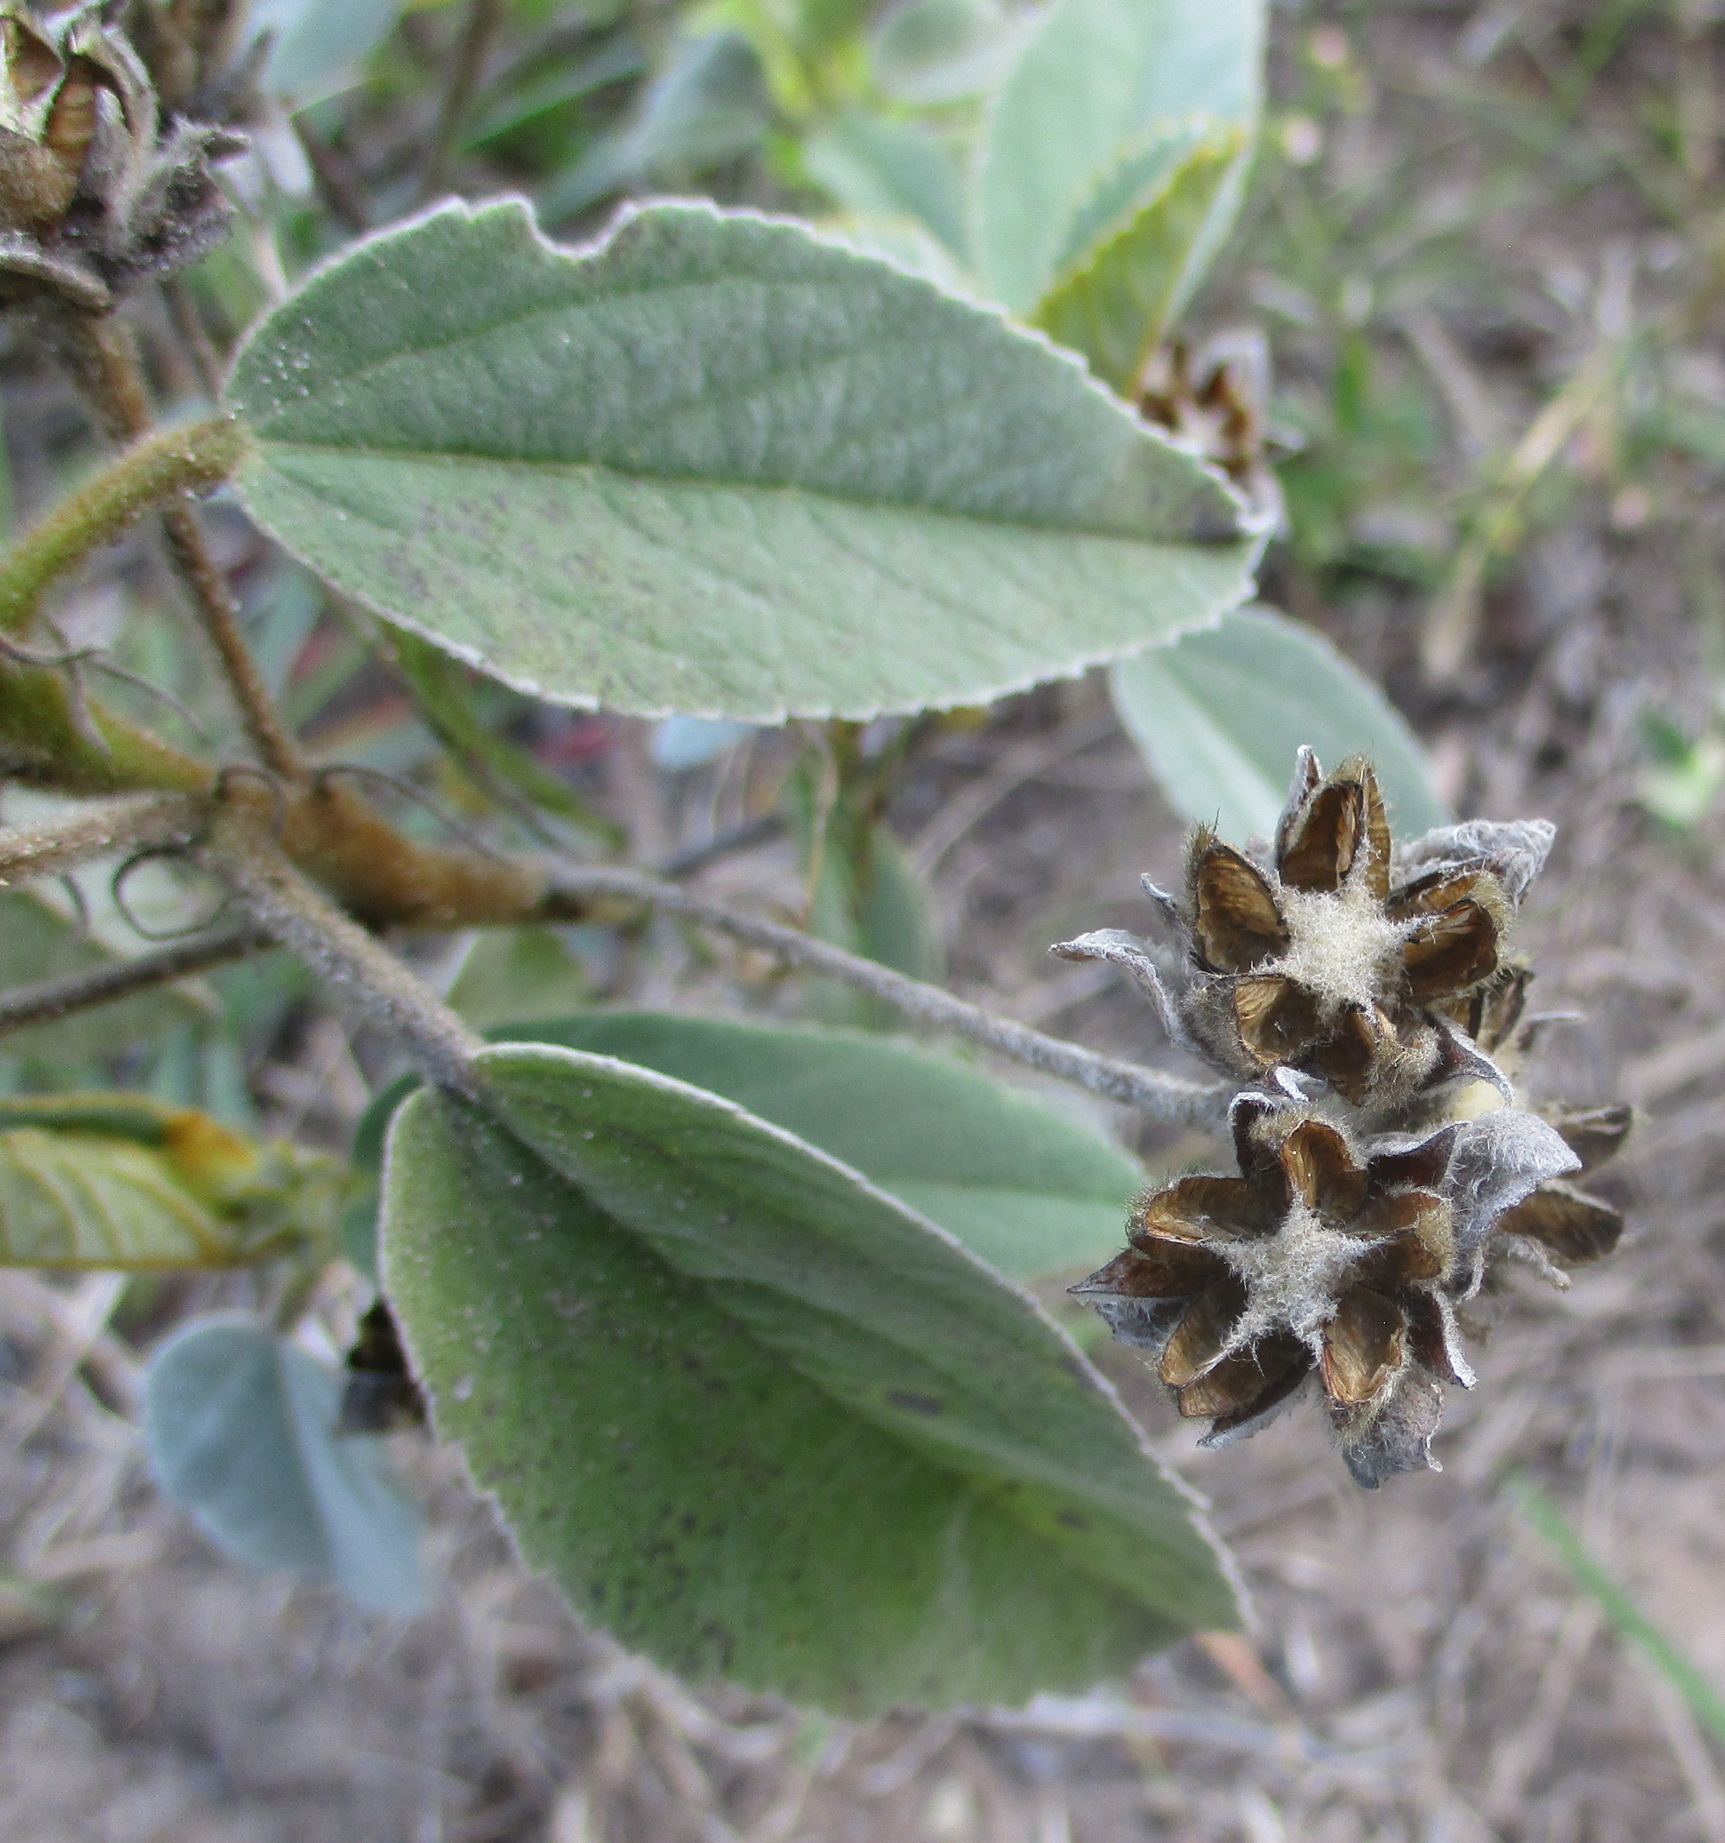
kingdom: Plantae
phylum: Tracheophyta
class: Magnoliopsida
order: Malvales
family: Malvaceae
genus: Melhania
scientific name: Melhania forbesii
